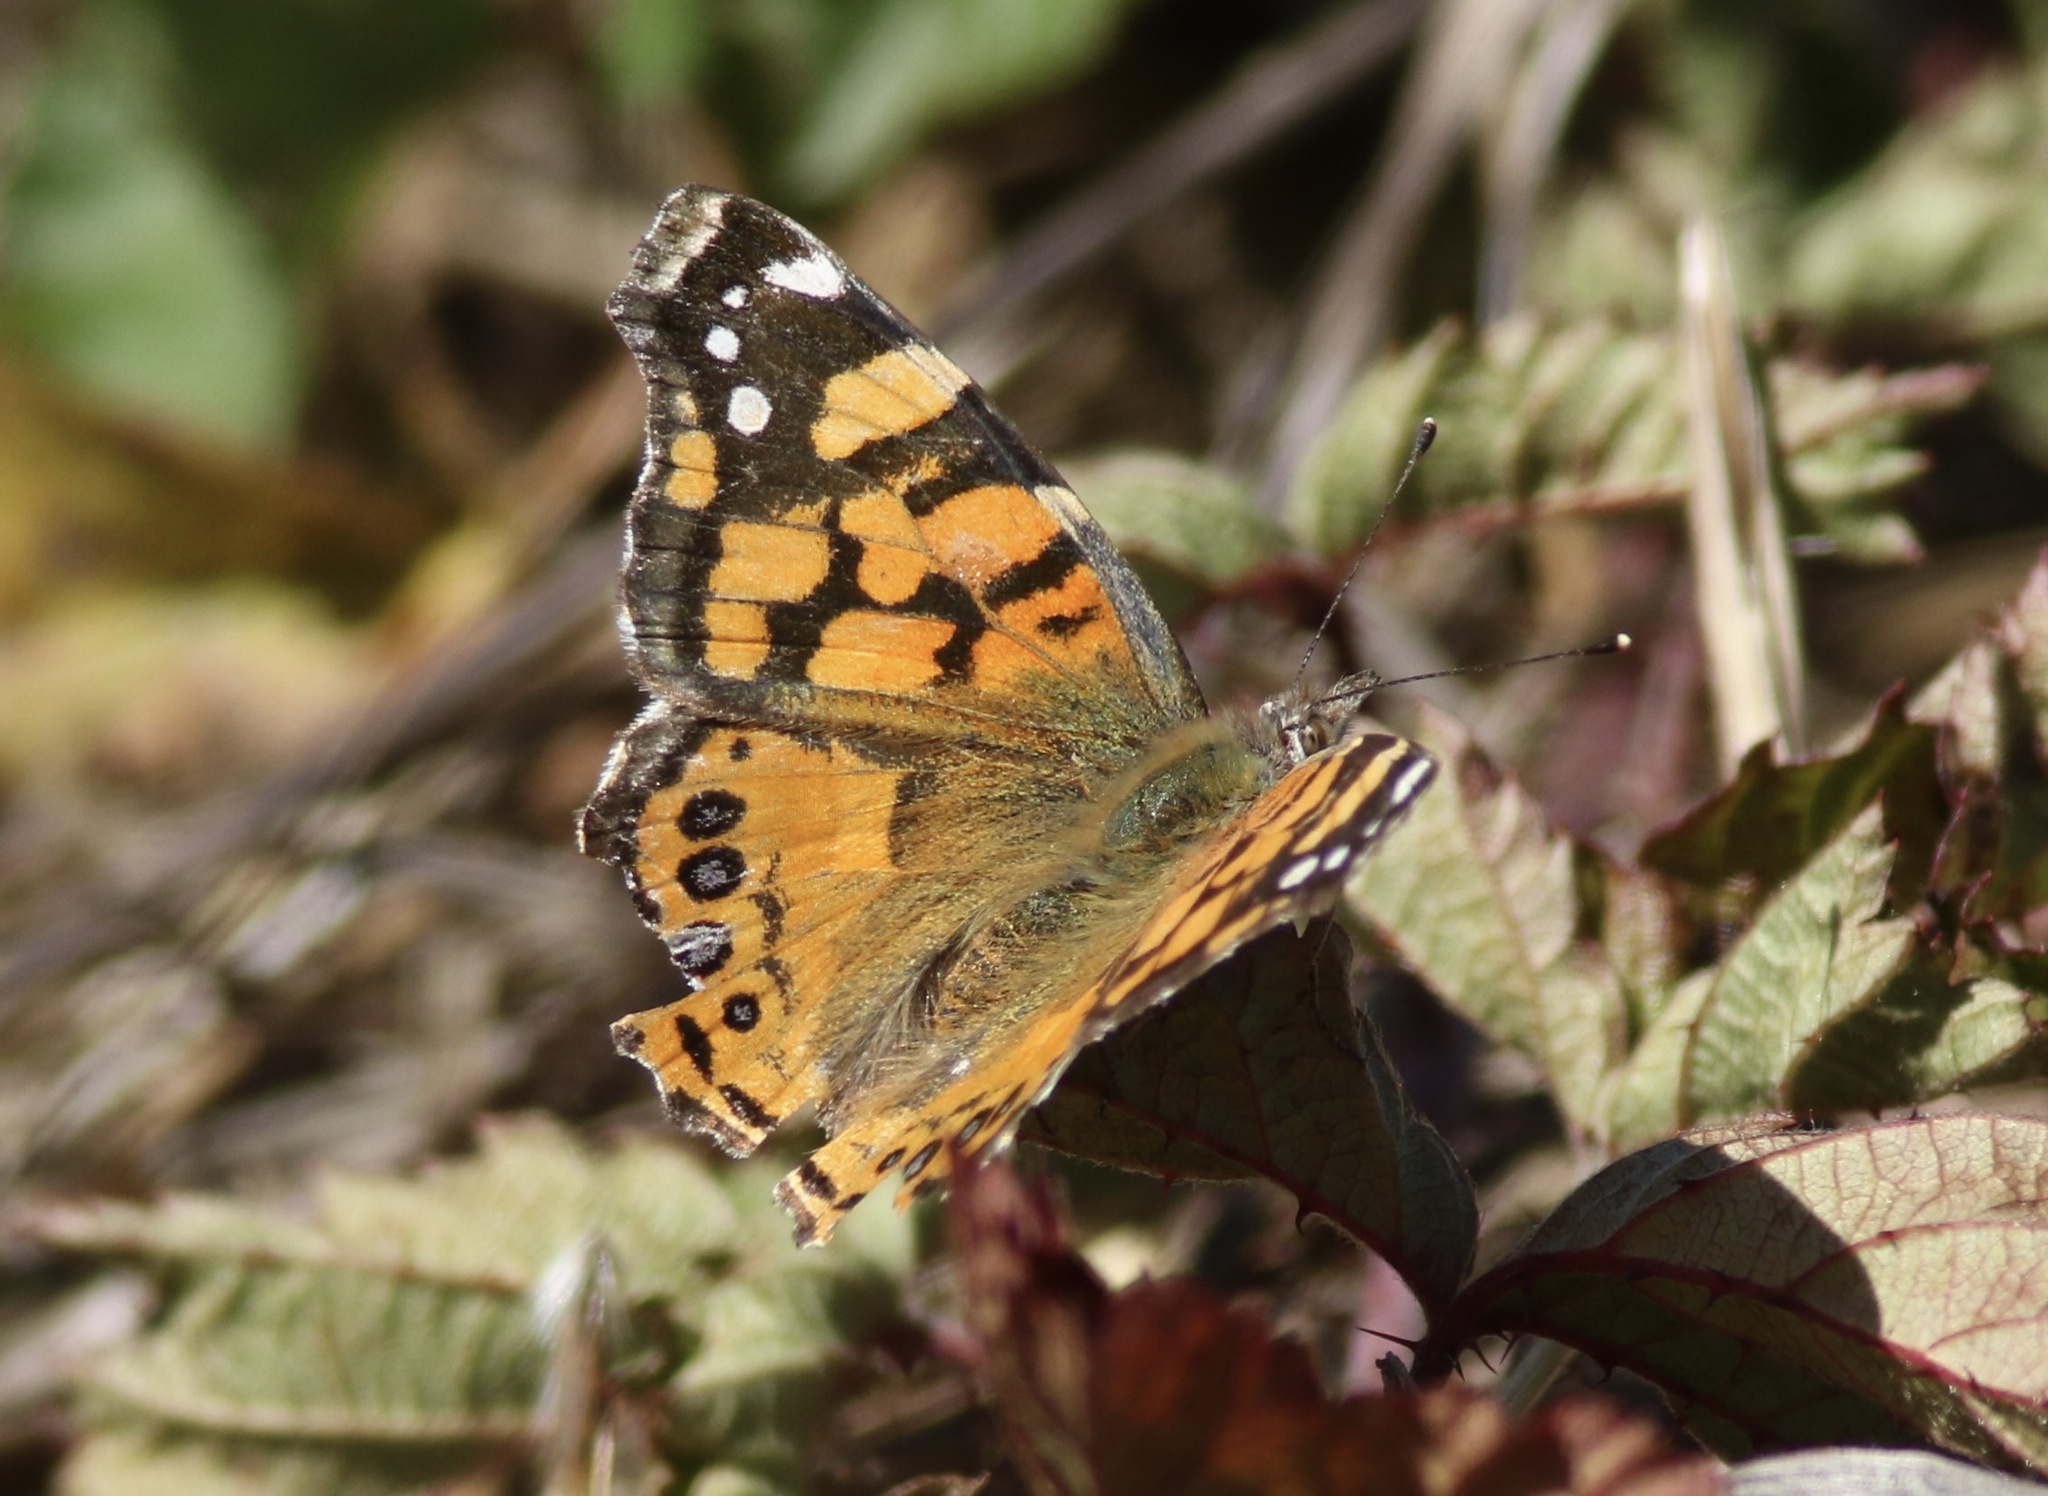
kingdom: Animalia
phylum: Arthropoda
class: Insecta
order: Lepidoptera
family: Nymphalidae
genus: Vanessa
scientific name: Vanessa annabella
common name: West coast lady
